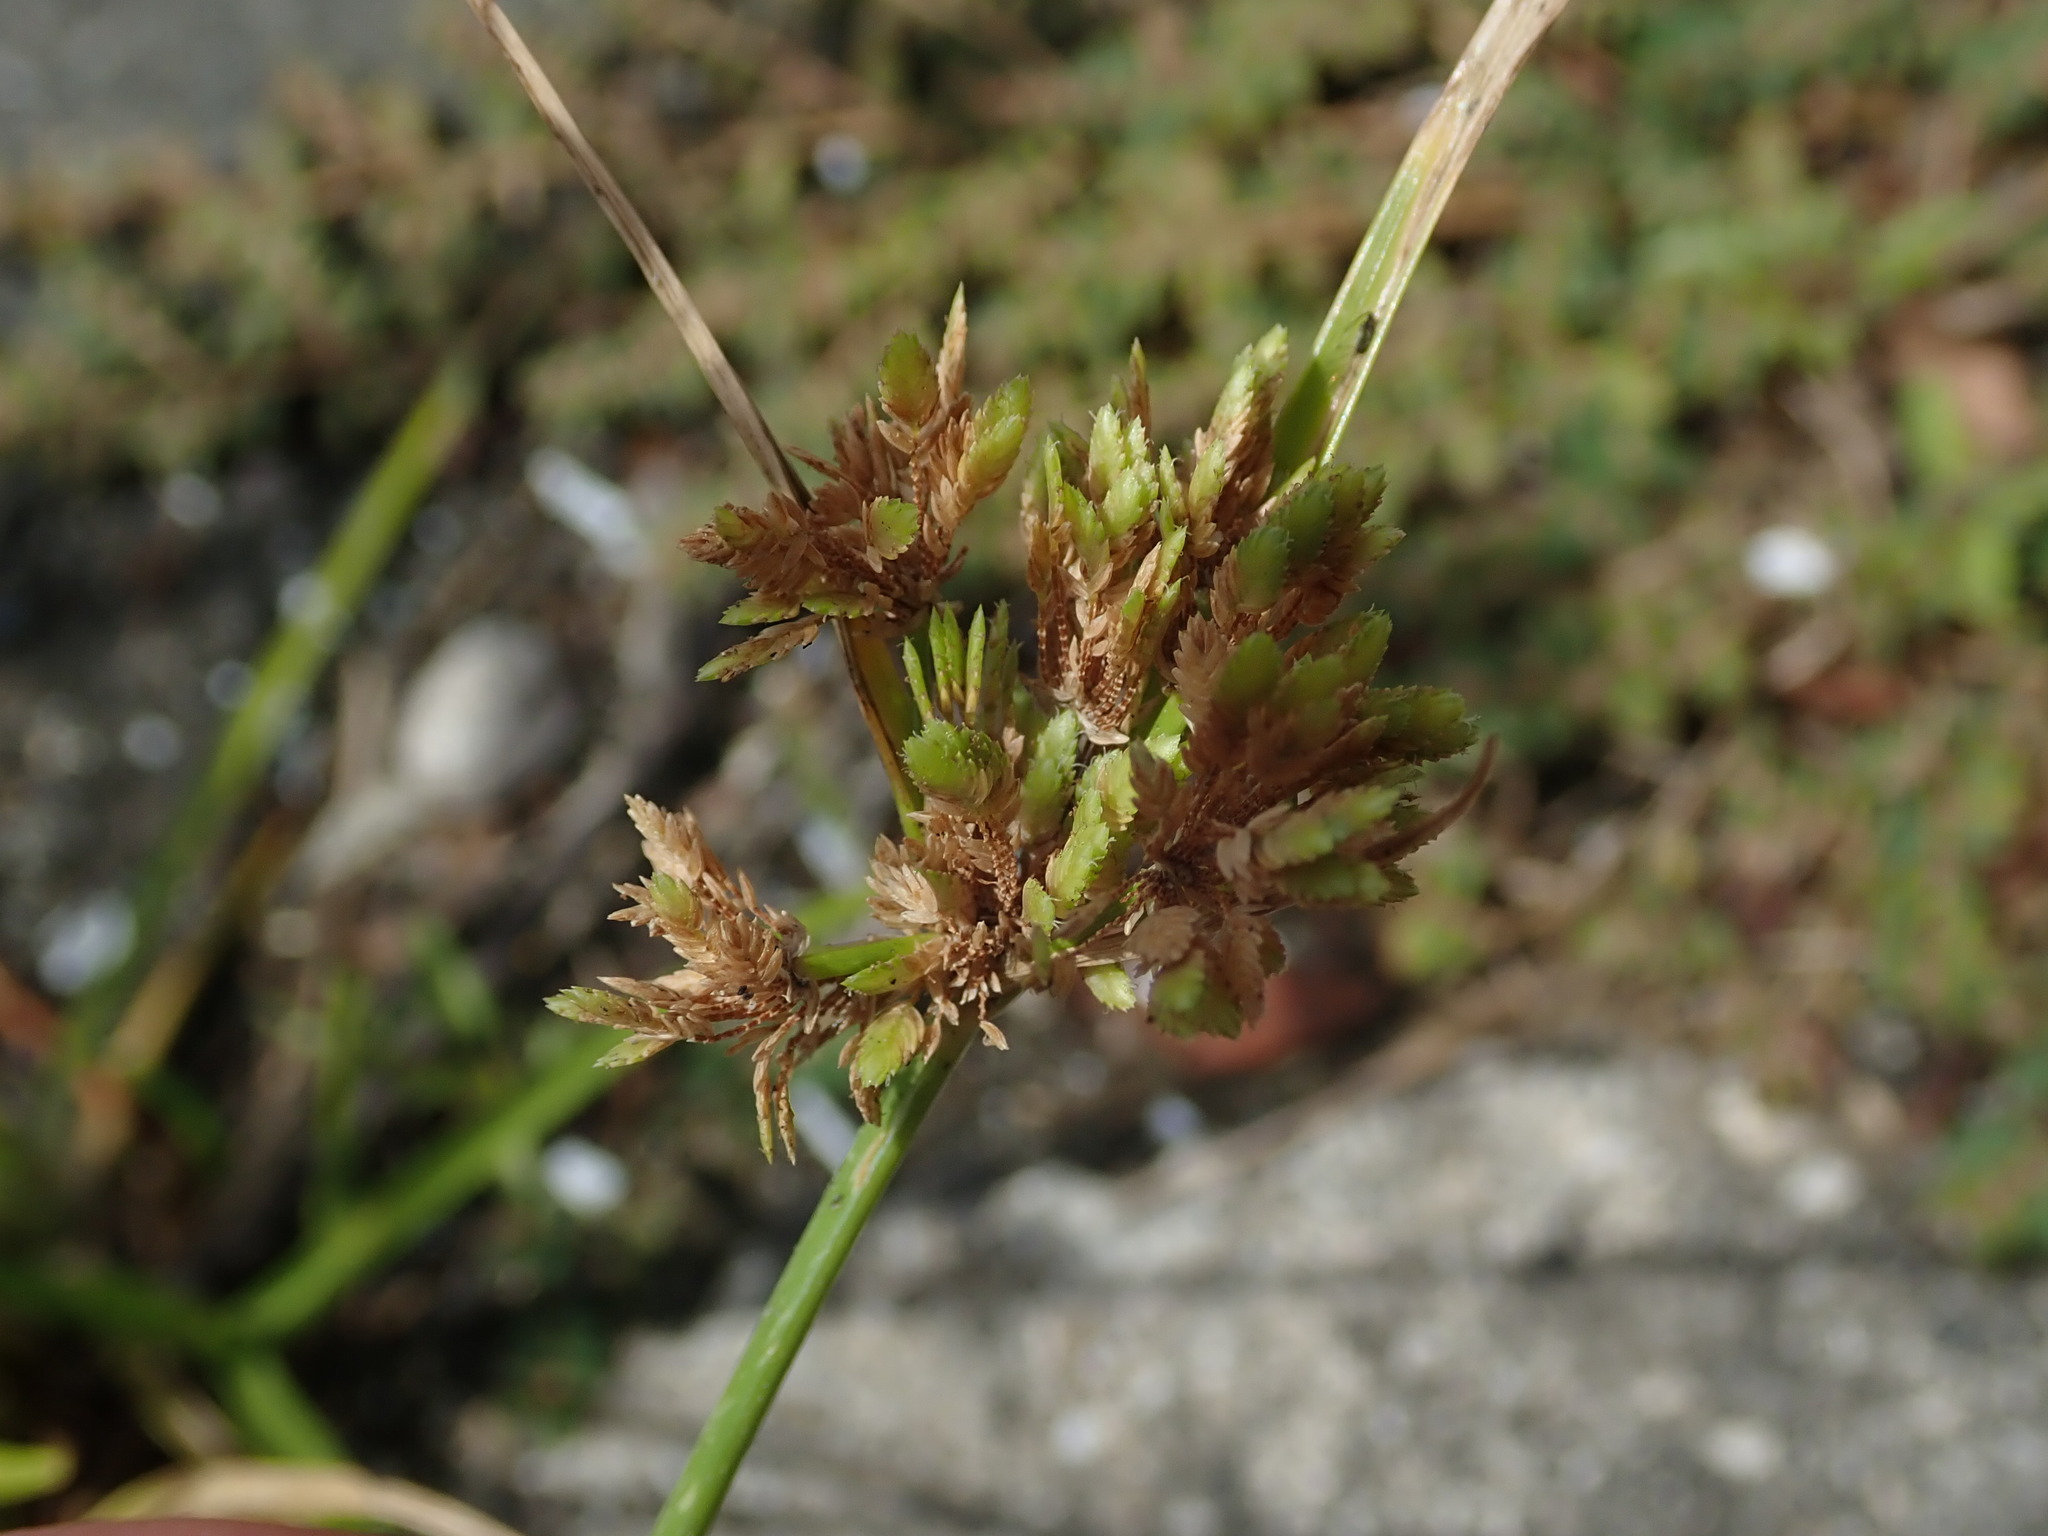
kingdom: Plantae
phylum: Tracheophyta
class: Liliopsida
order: Poales
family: Cyperaceae
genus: Cyperus
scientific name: Cyperus surinamensis
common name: Tropical flat sedge
